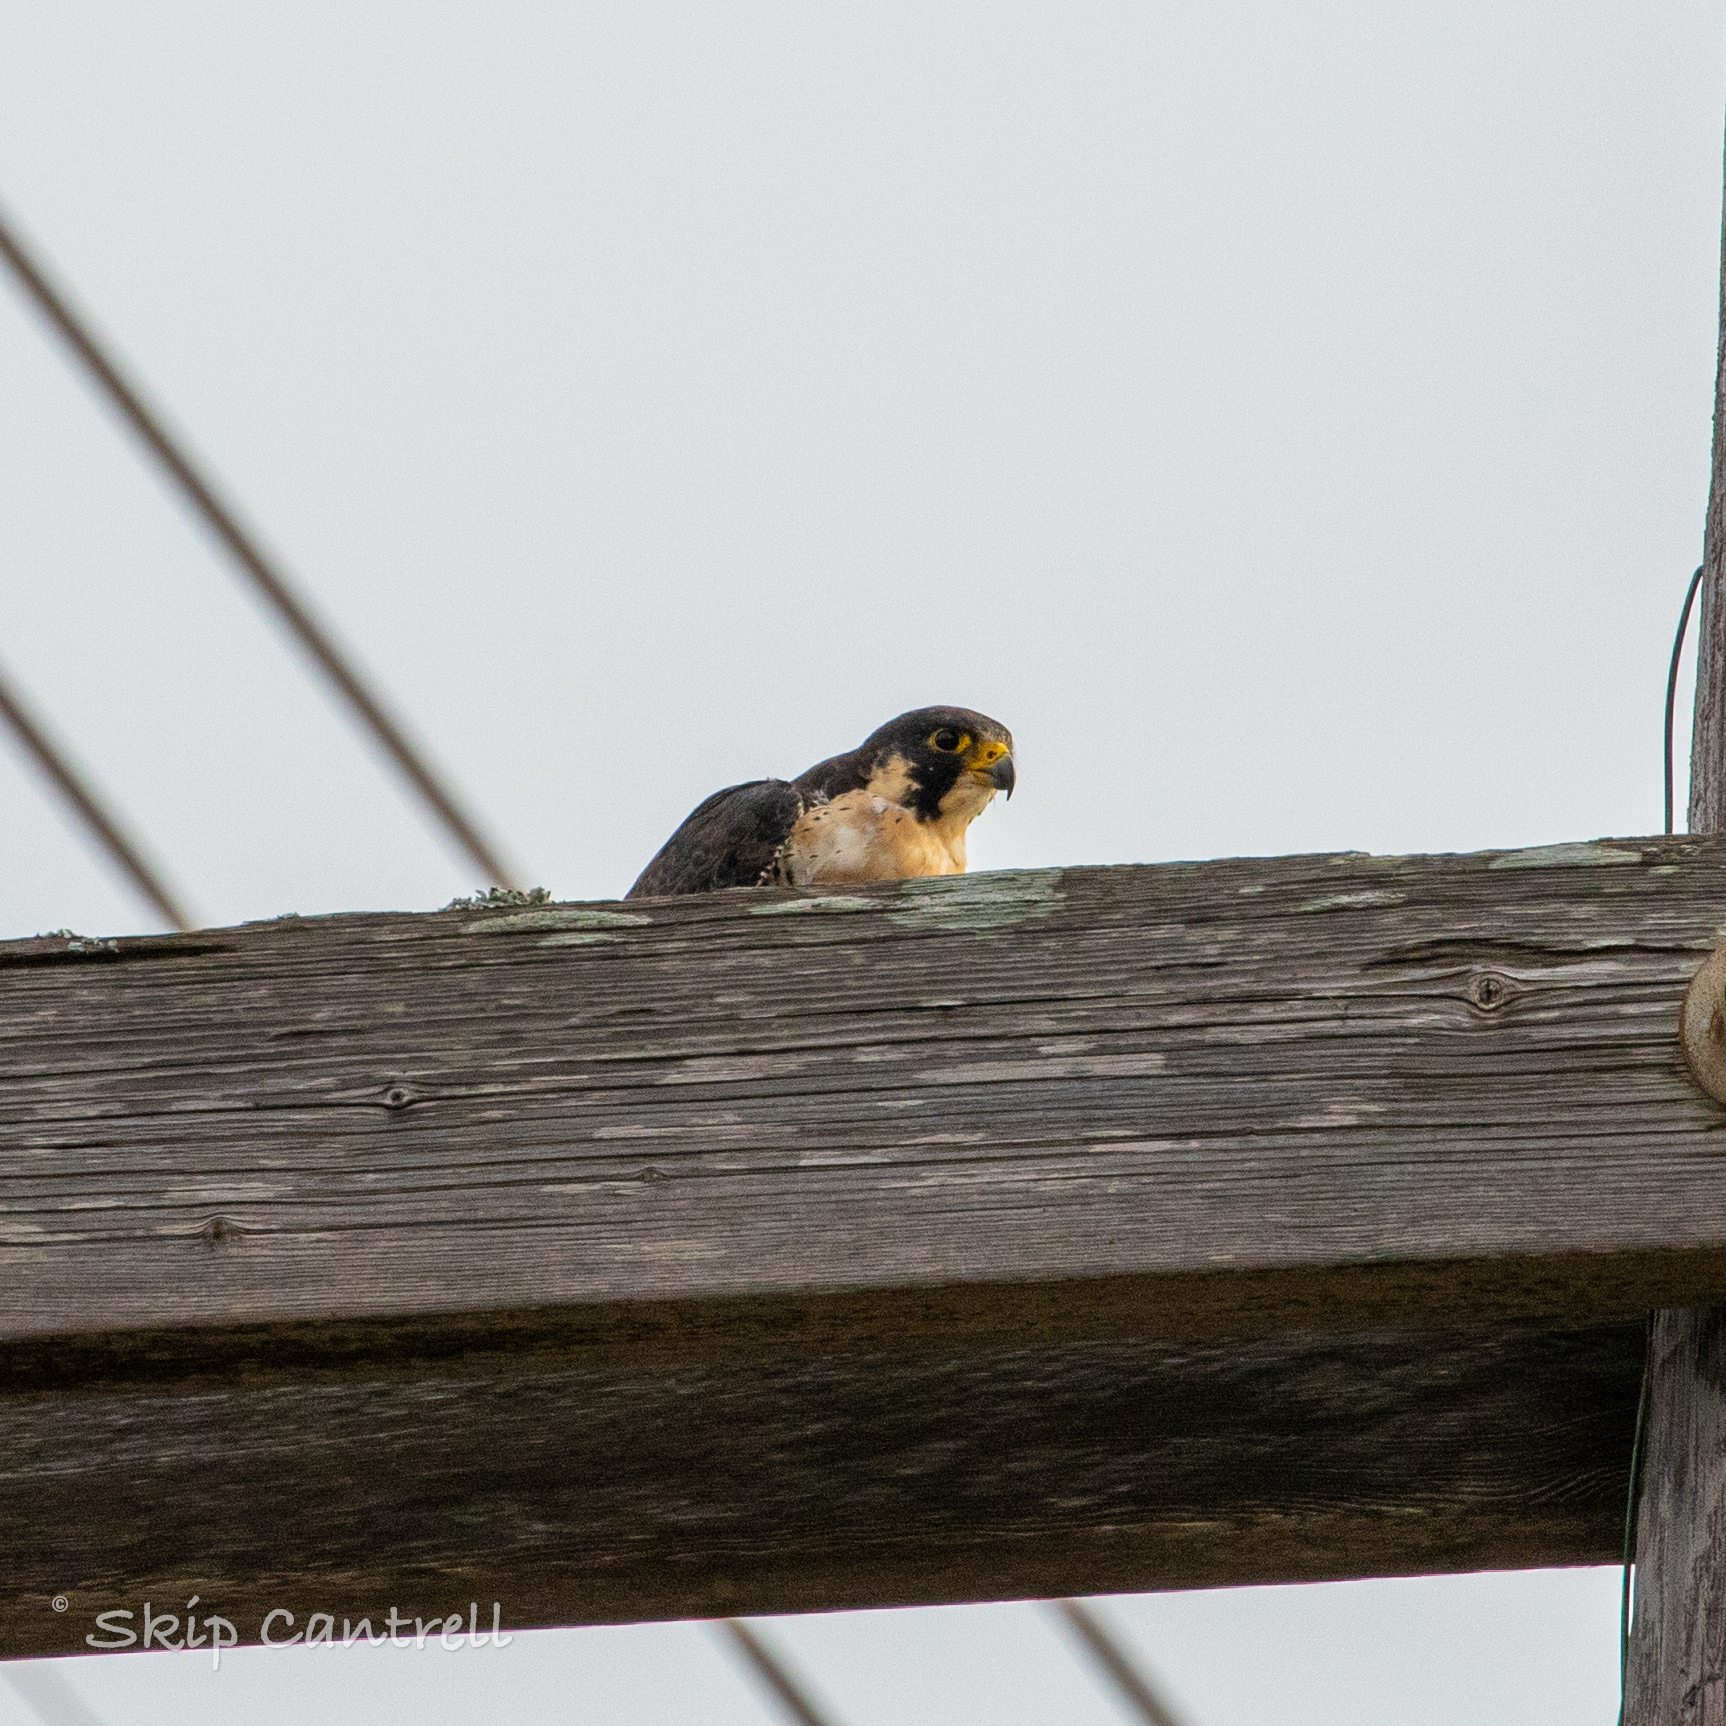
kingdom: Animalia
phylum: Chordata
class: Aves
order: Falconiformes
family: Falconidae
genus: Falco
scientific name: Falco peregrinus
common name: Peregrine falcon
